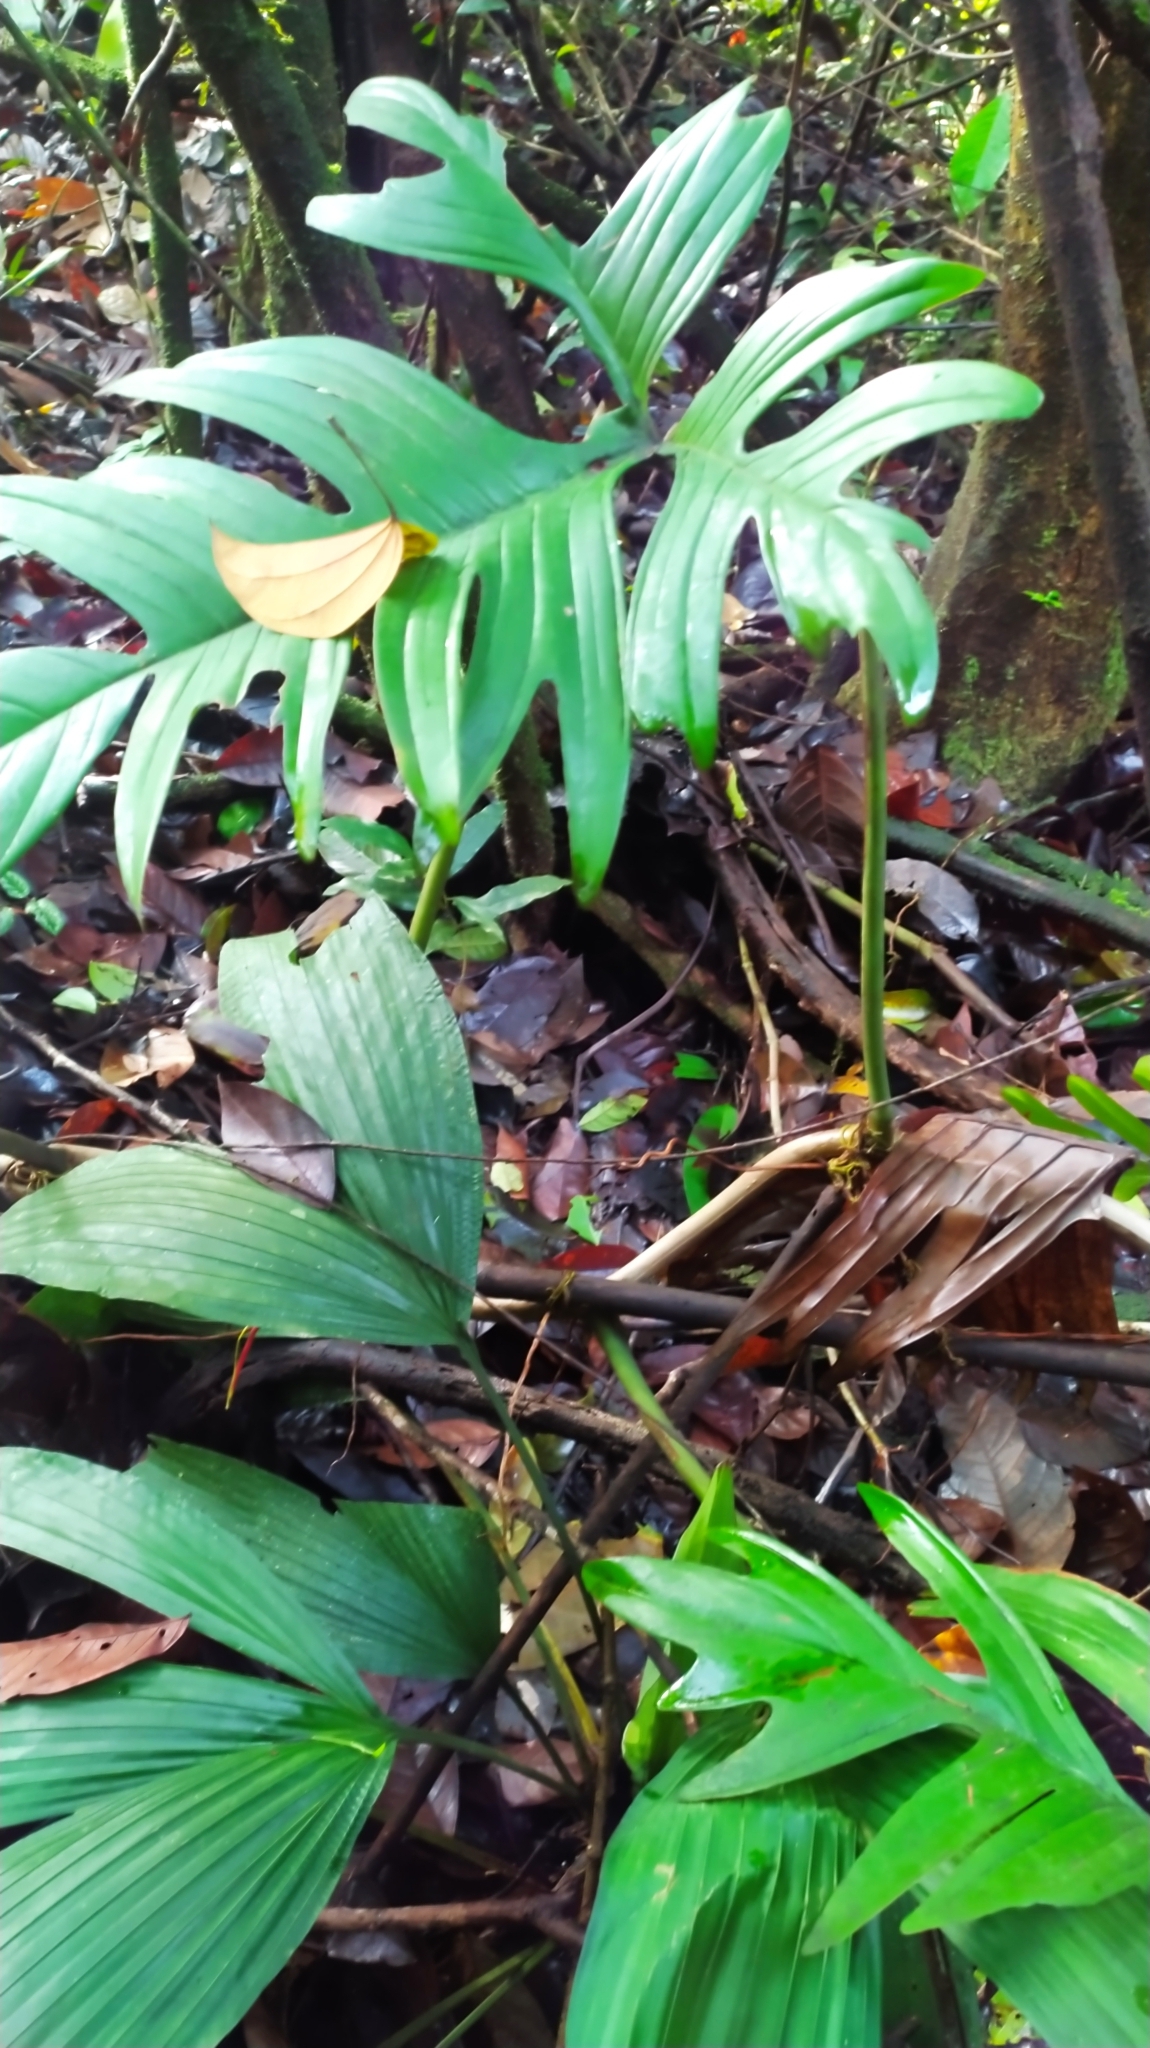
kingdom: Plantae
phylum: Tracheophyta
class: Liliopsida
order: Alismatales
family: Araceae
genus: Philodendron
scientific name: Philodendron pedatum
